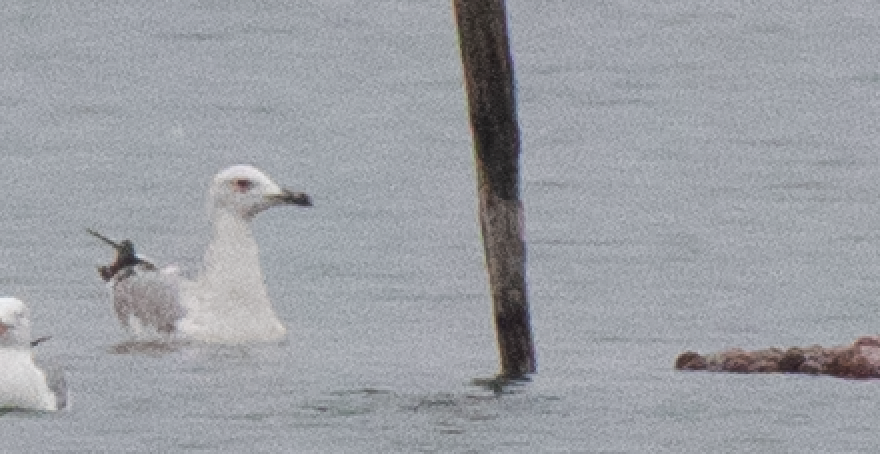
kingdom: Animalia
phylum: Chordata
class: Aves
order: Charadriiformes
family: Laridae
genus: Larus
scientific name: Larus cachinnans
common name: Caspian gull
